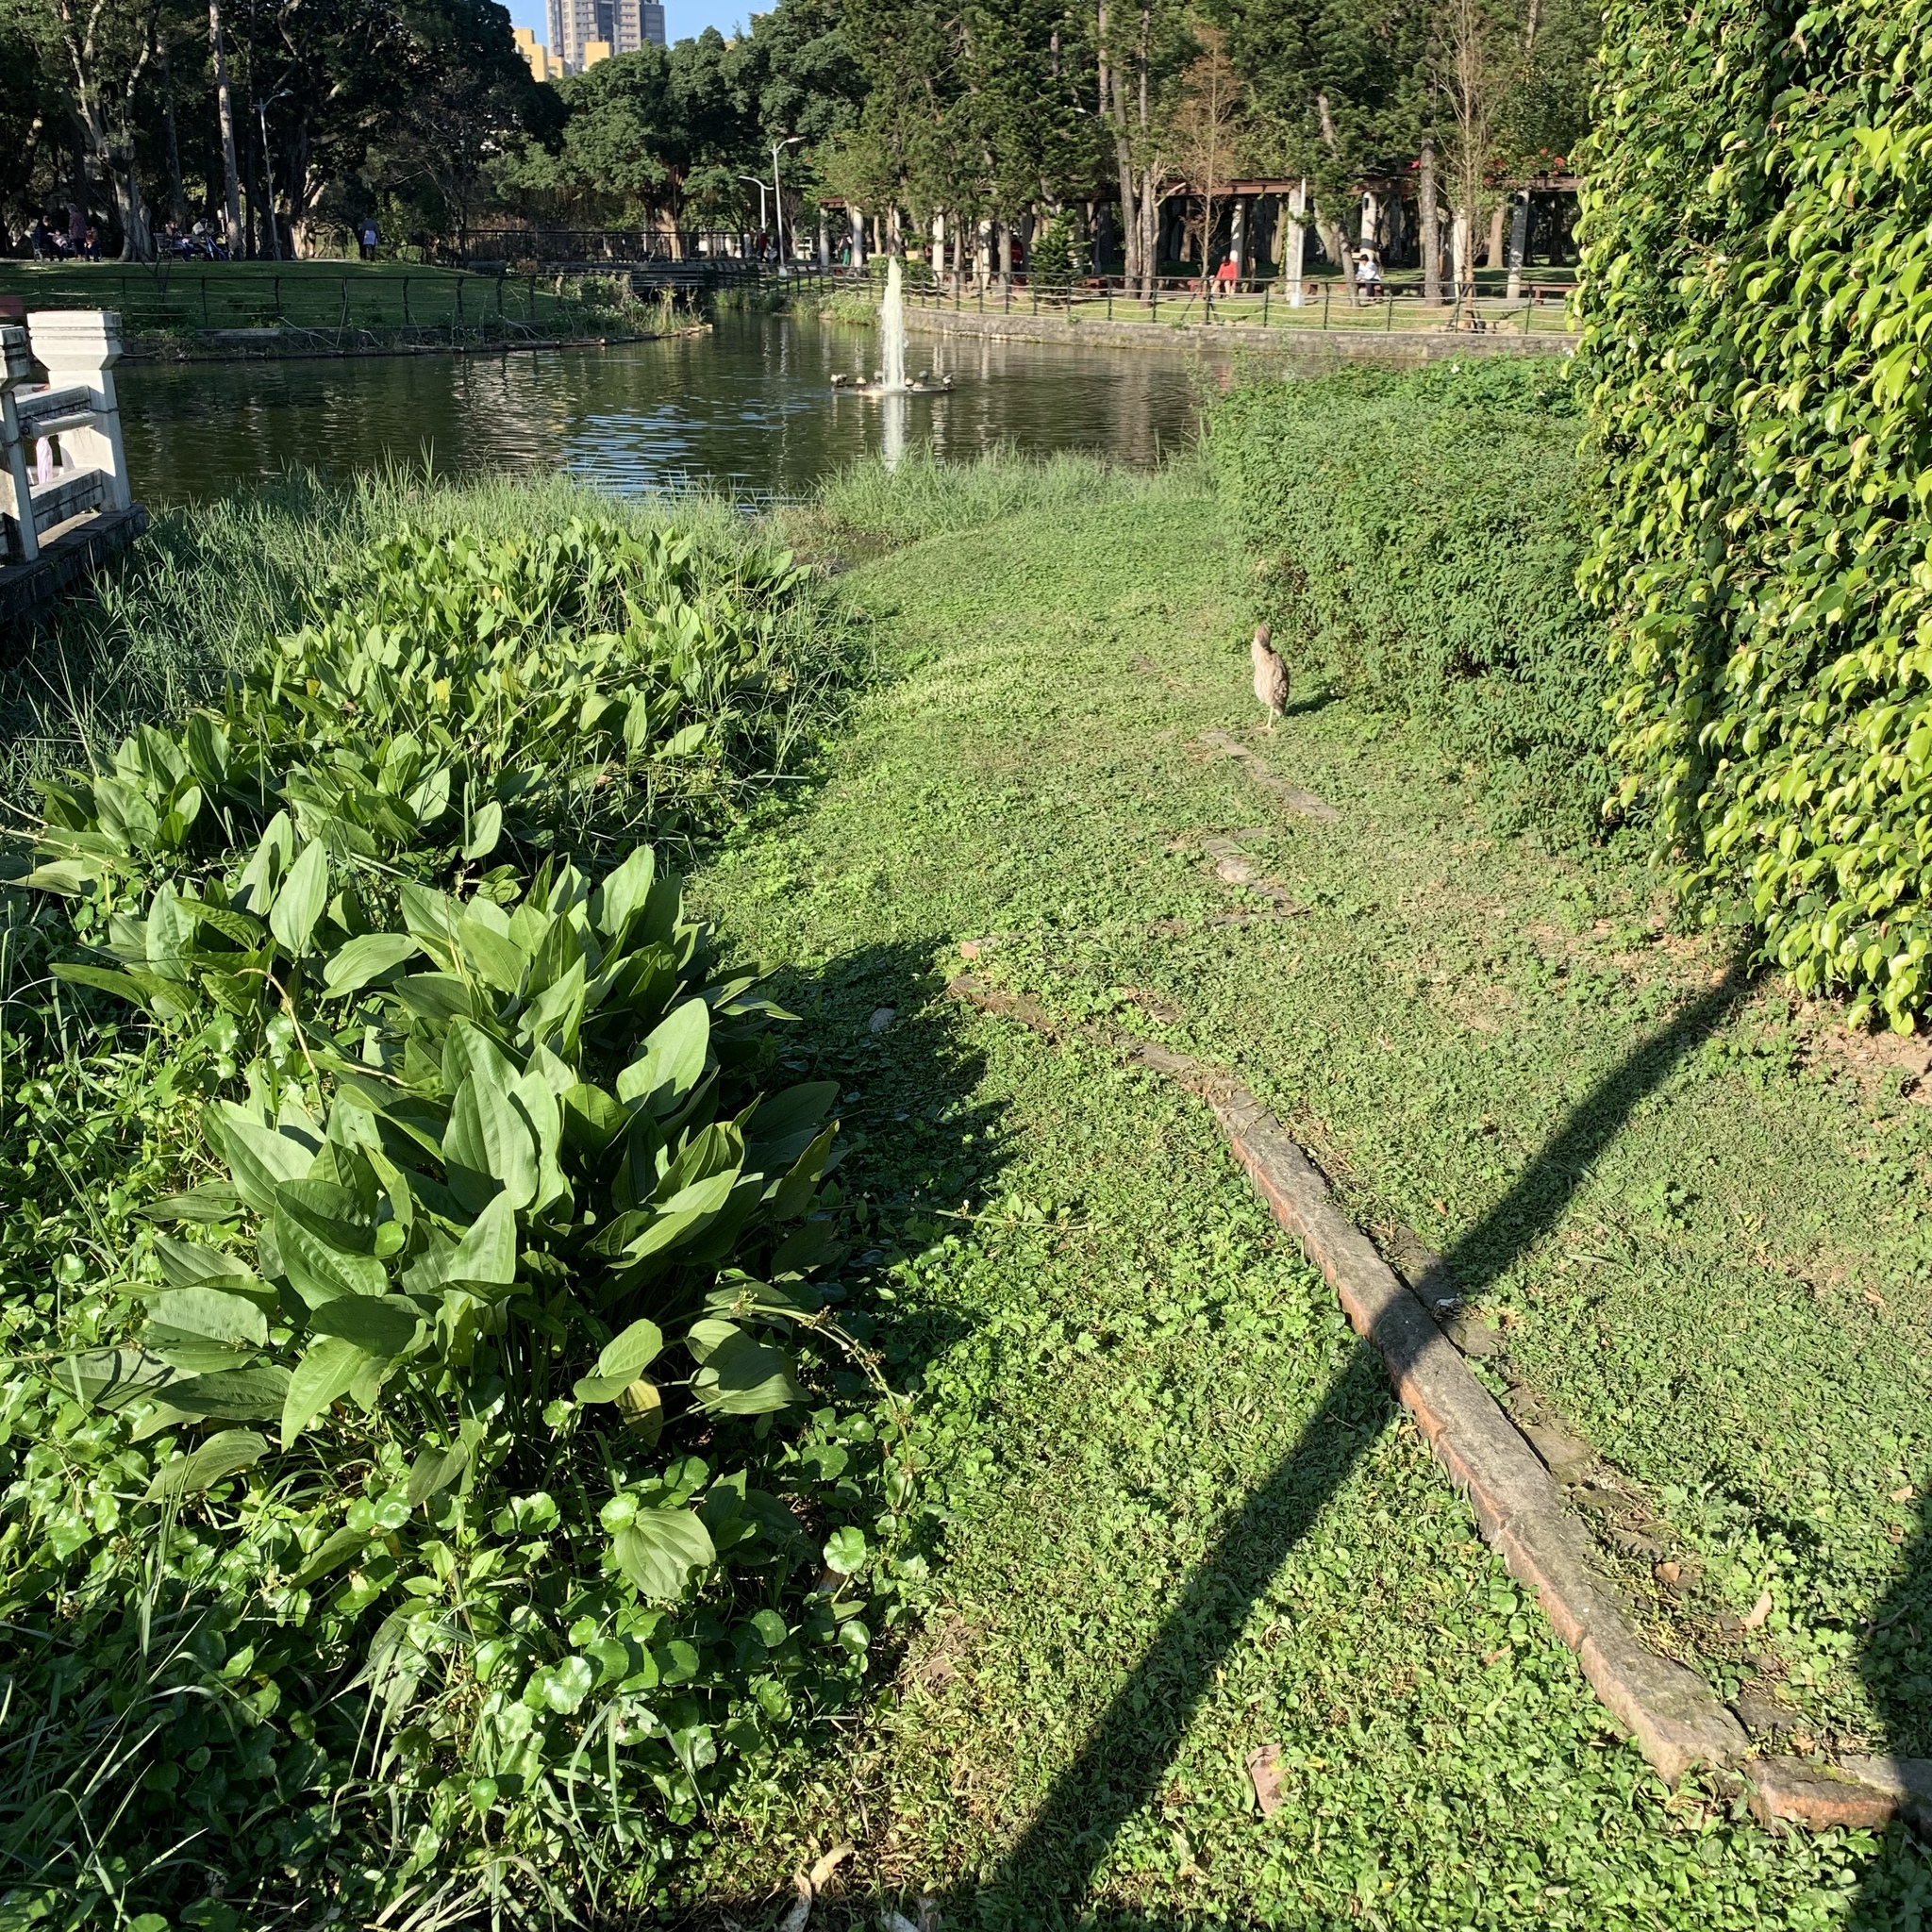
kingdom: Animalia
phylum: Chordata
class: Aves
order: Pelecaniformes
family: Ardeidae
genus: Gorsachius
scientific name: Gorsachius melanolophus
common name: Malayan night heron
